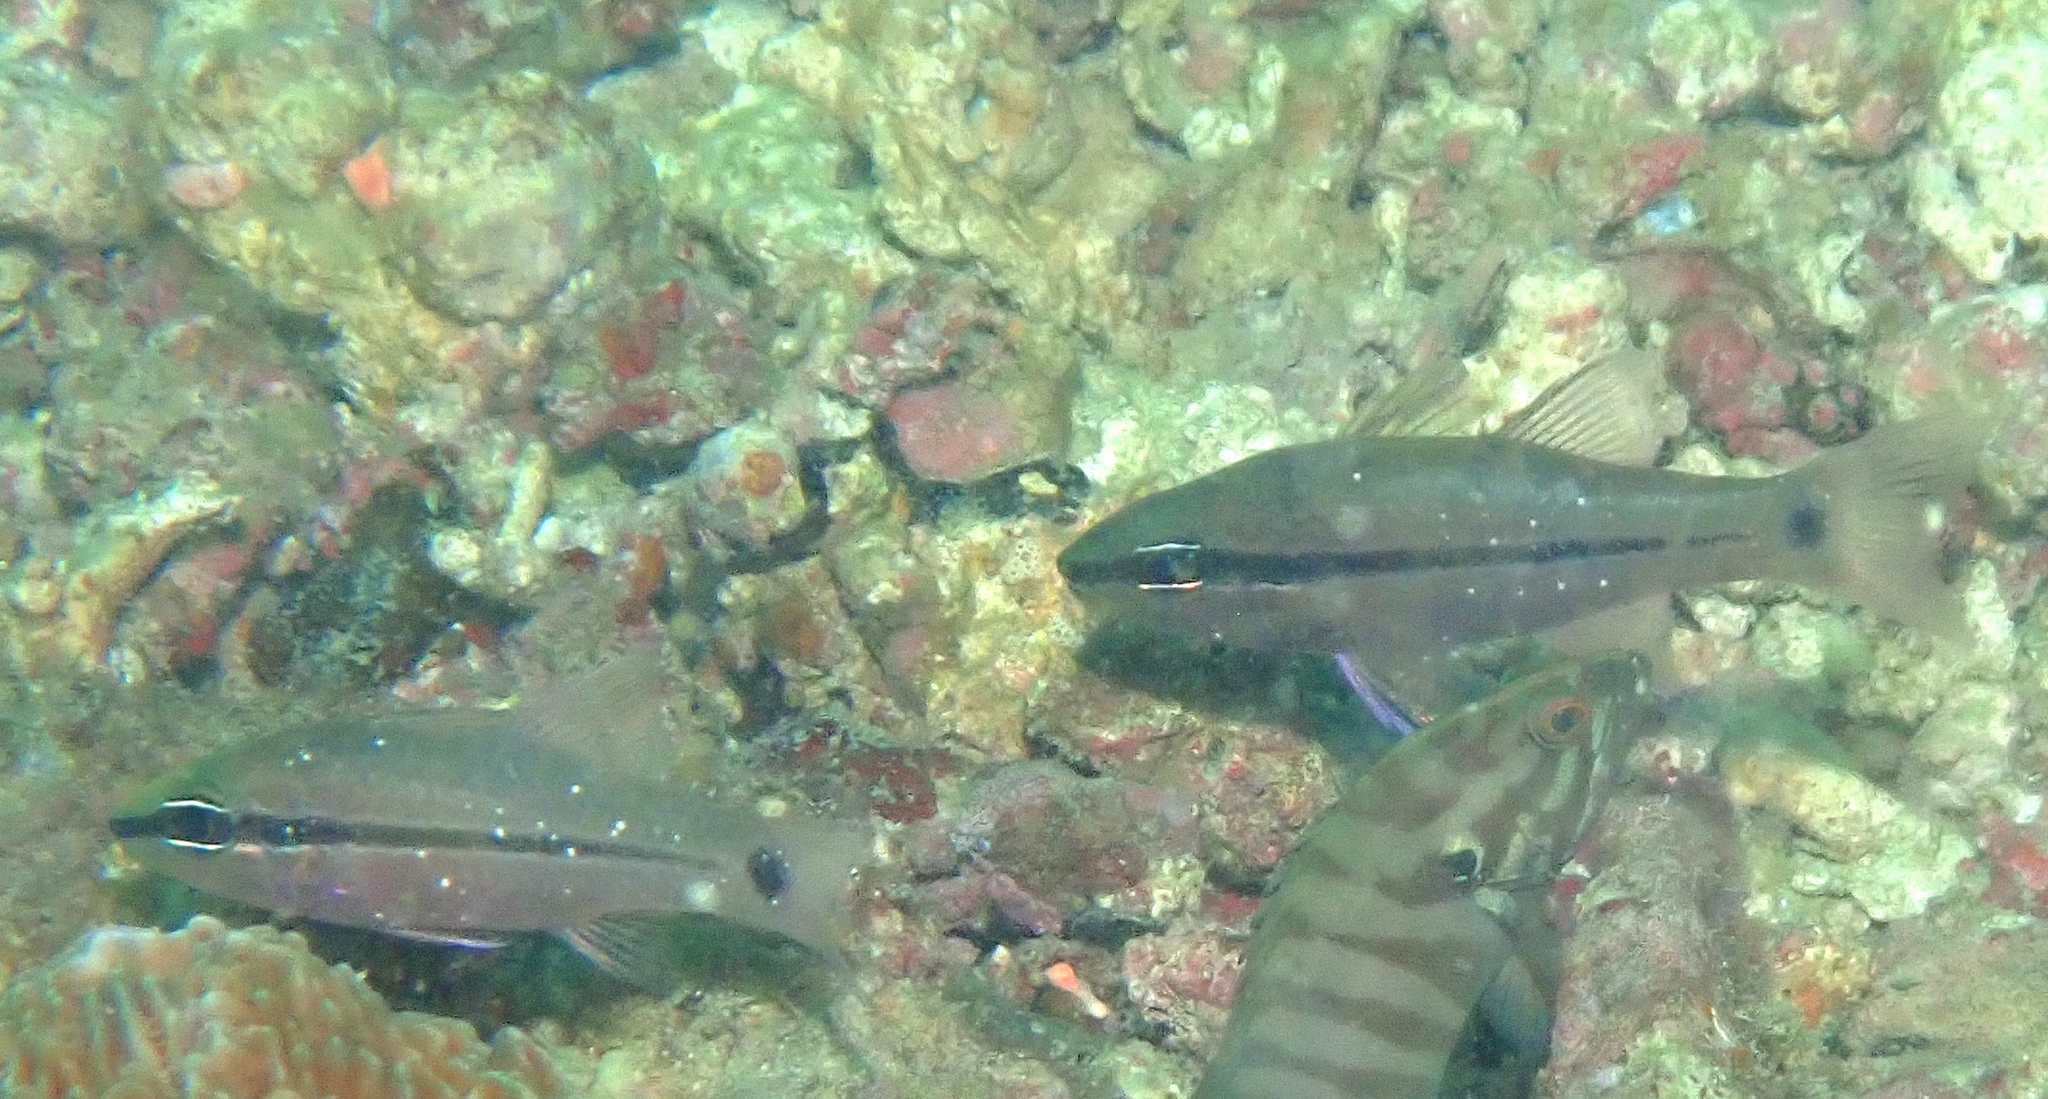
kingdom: Animalia
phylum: Chordata
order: Perciformes
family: Apogonidae
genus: Pristiapogon
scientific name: Pristiapogon fraenatus
